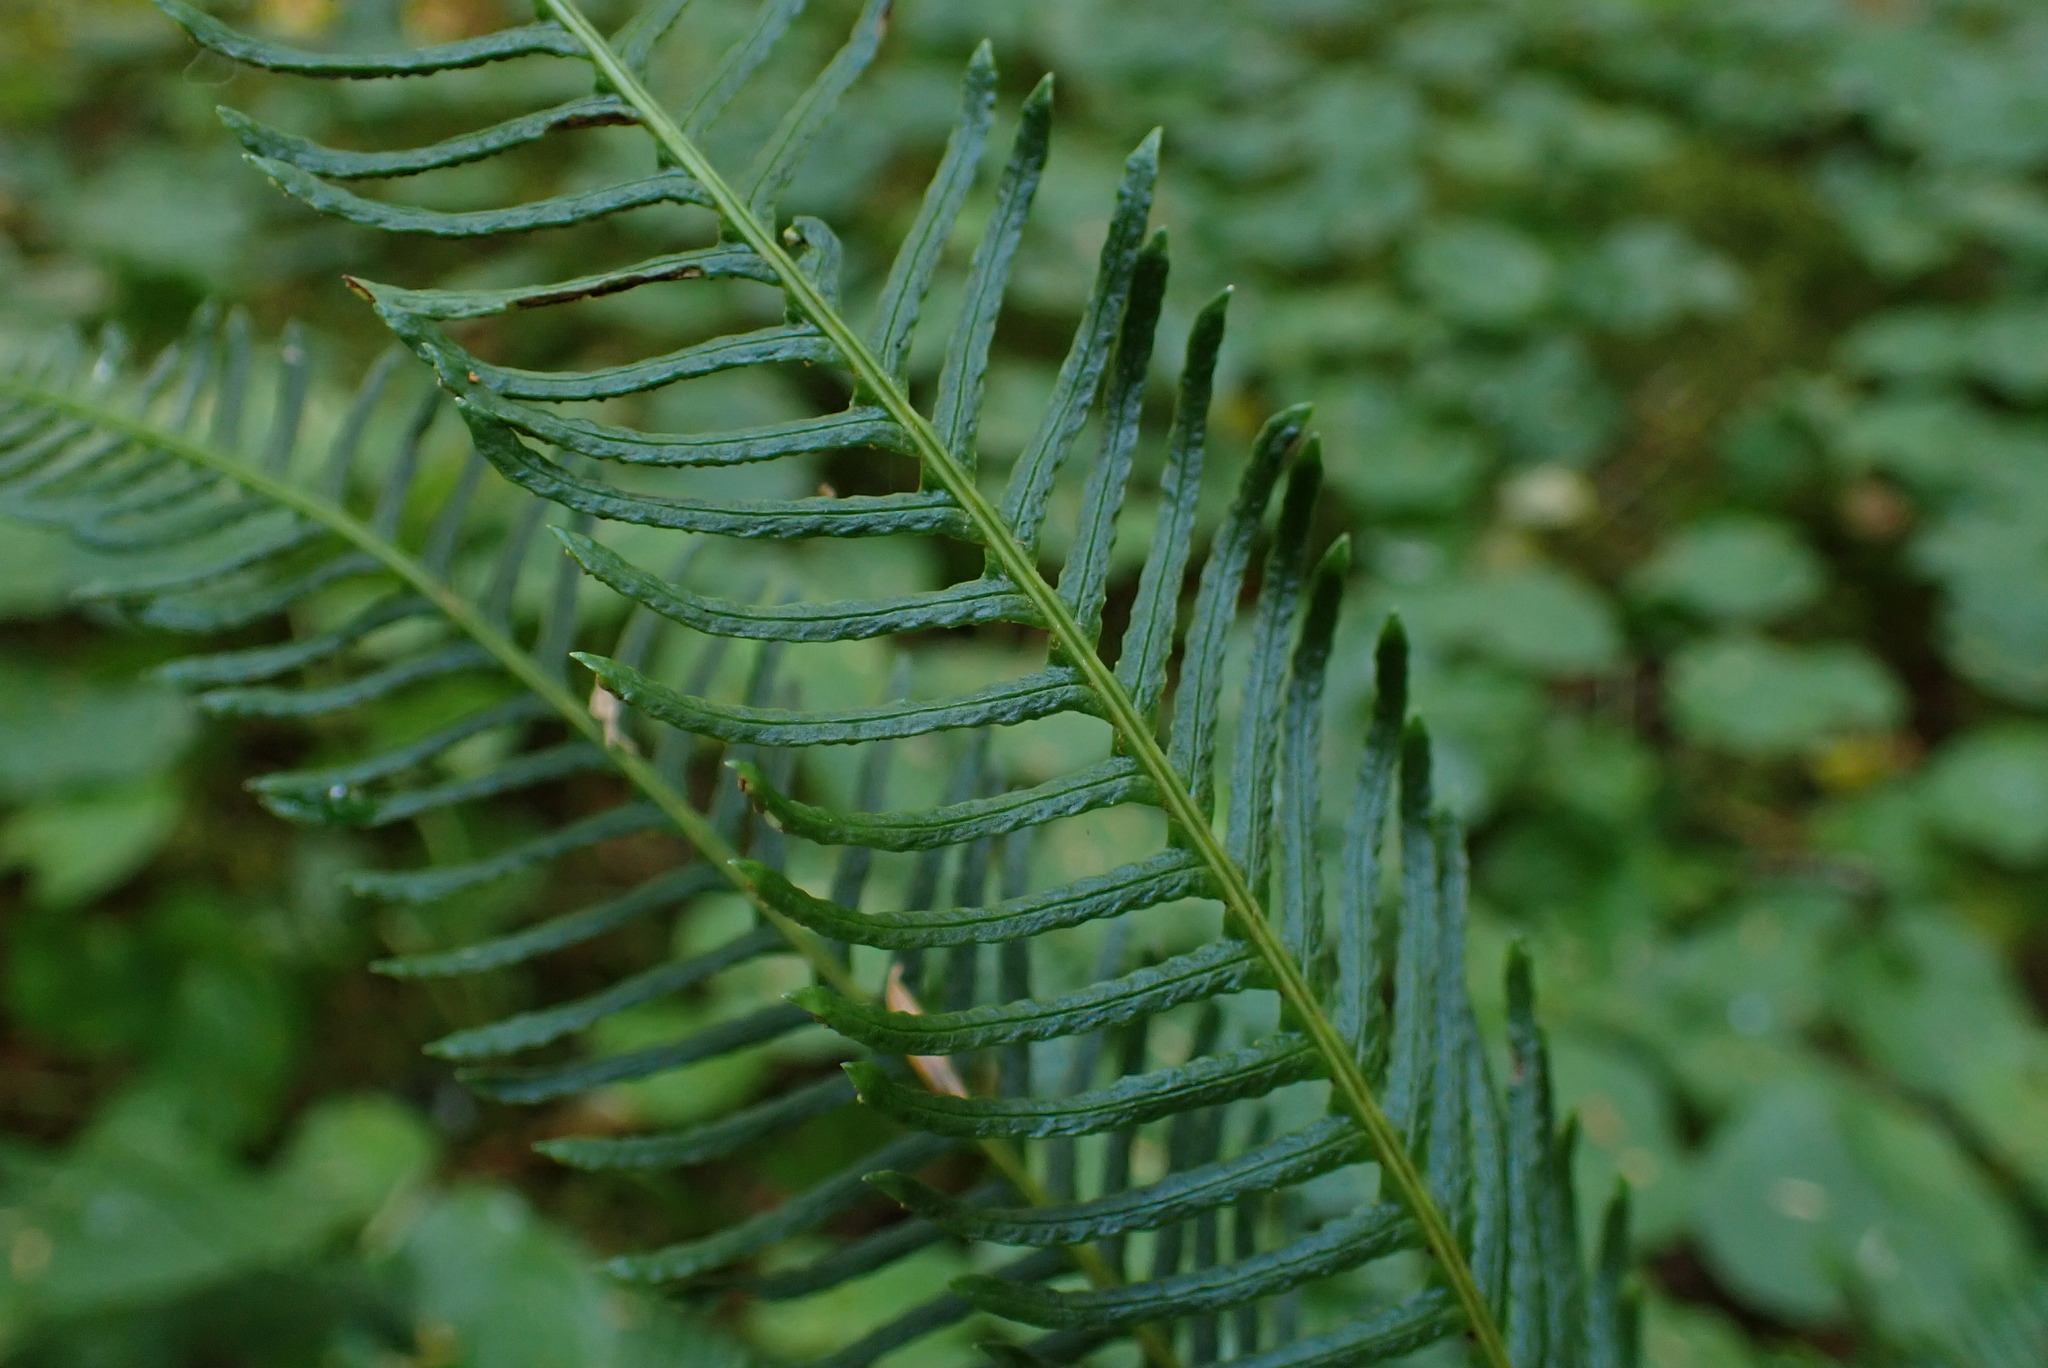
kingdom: Plantae
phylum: Tracheophyta
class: Polypodiopsida
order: Polypodiales
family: Blechnaceae
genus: Struthiopteris
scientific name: Struthiopteris spicant
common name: Deer fern
